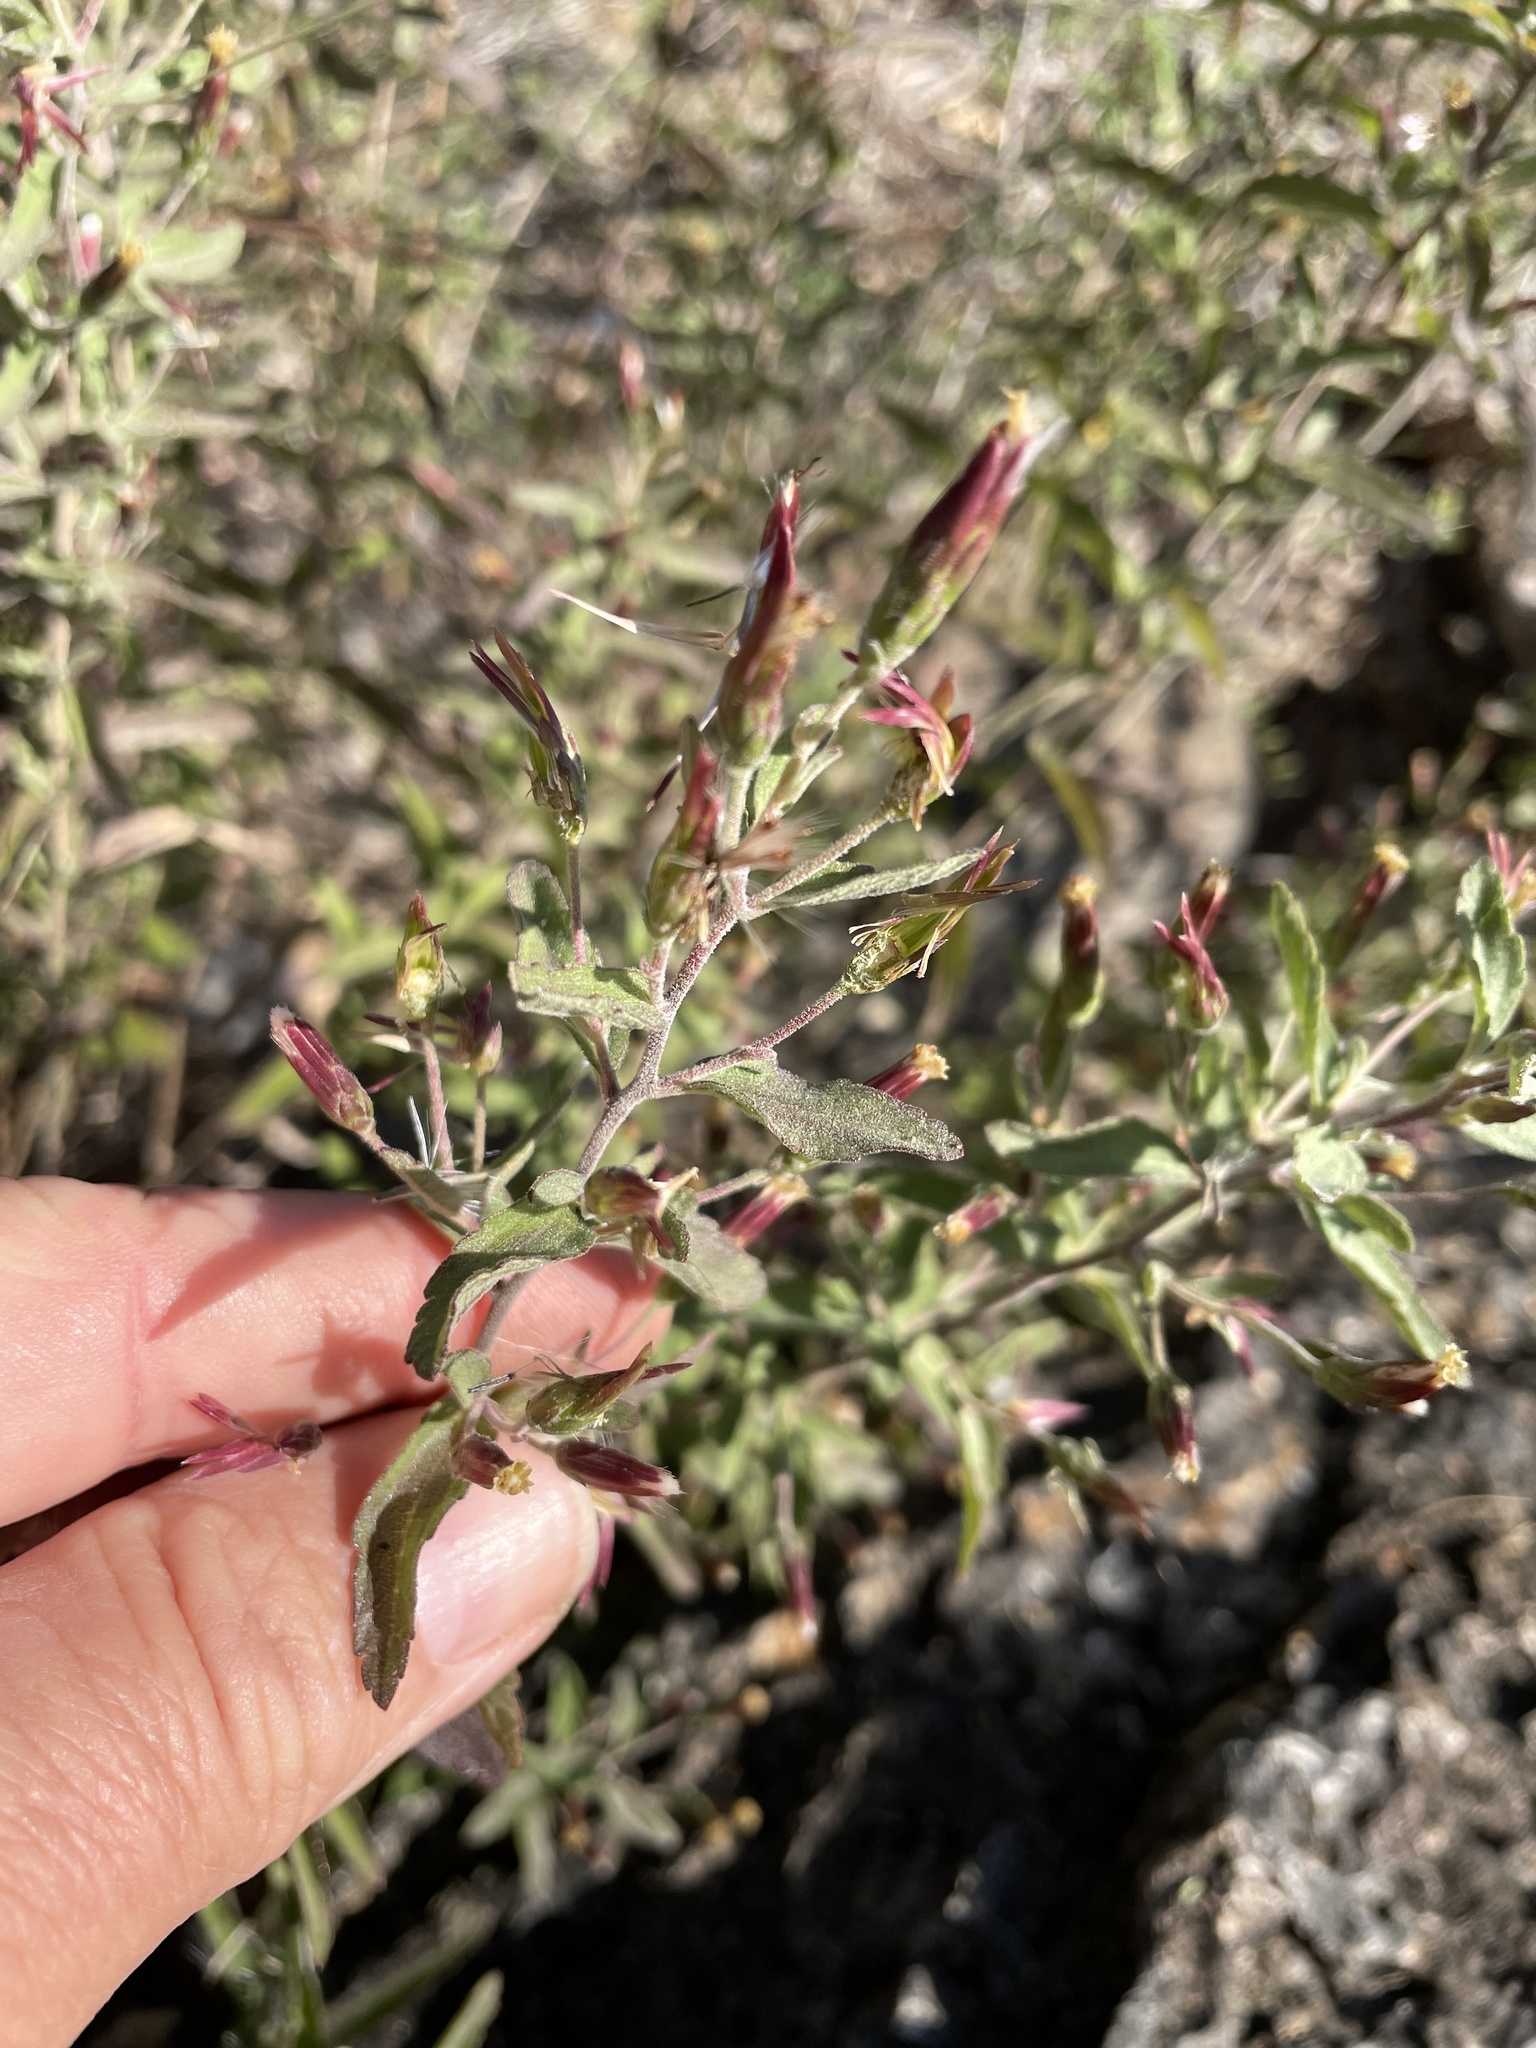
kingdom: Plantae
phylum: Tracheophyta
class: Magnoliopsida
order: Asterales
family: Asteraceae
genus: Brickellia
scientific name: Brickellia cylindracea
